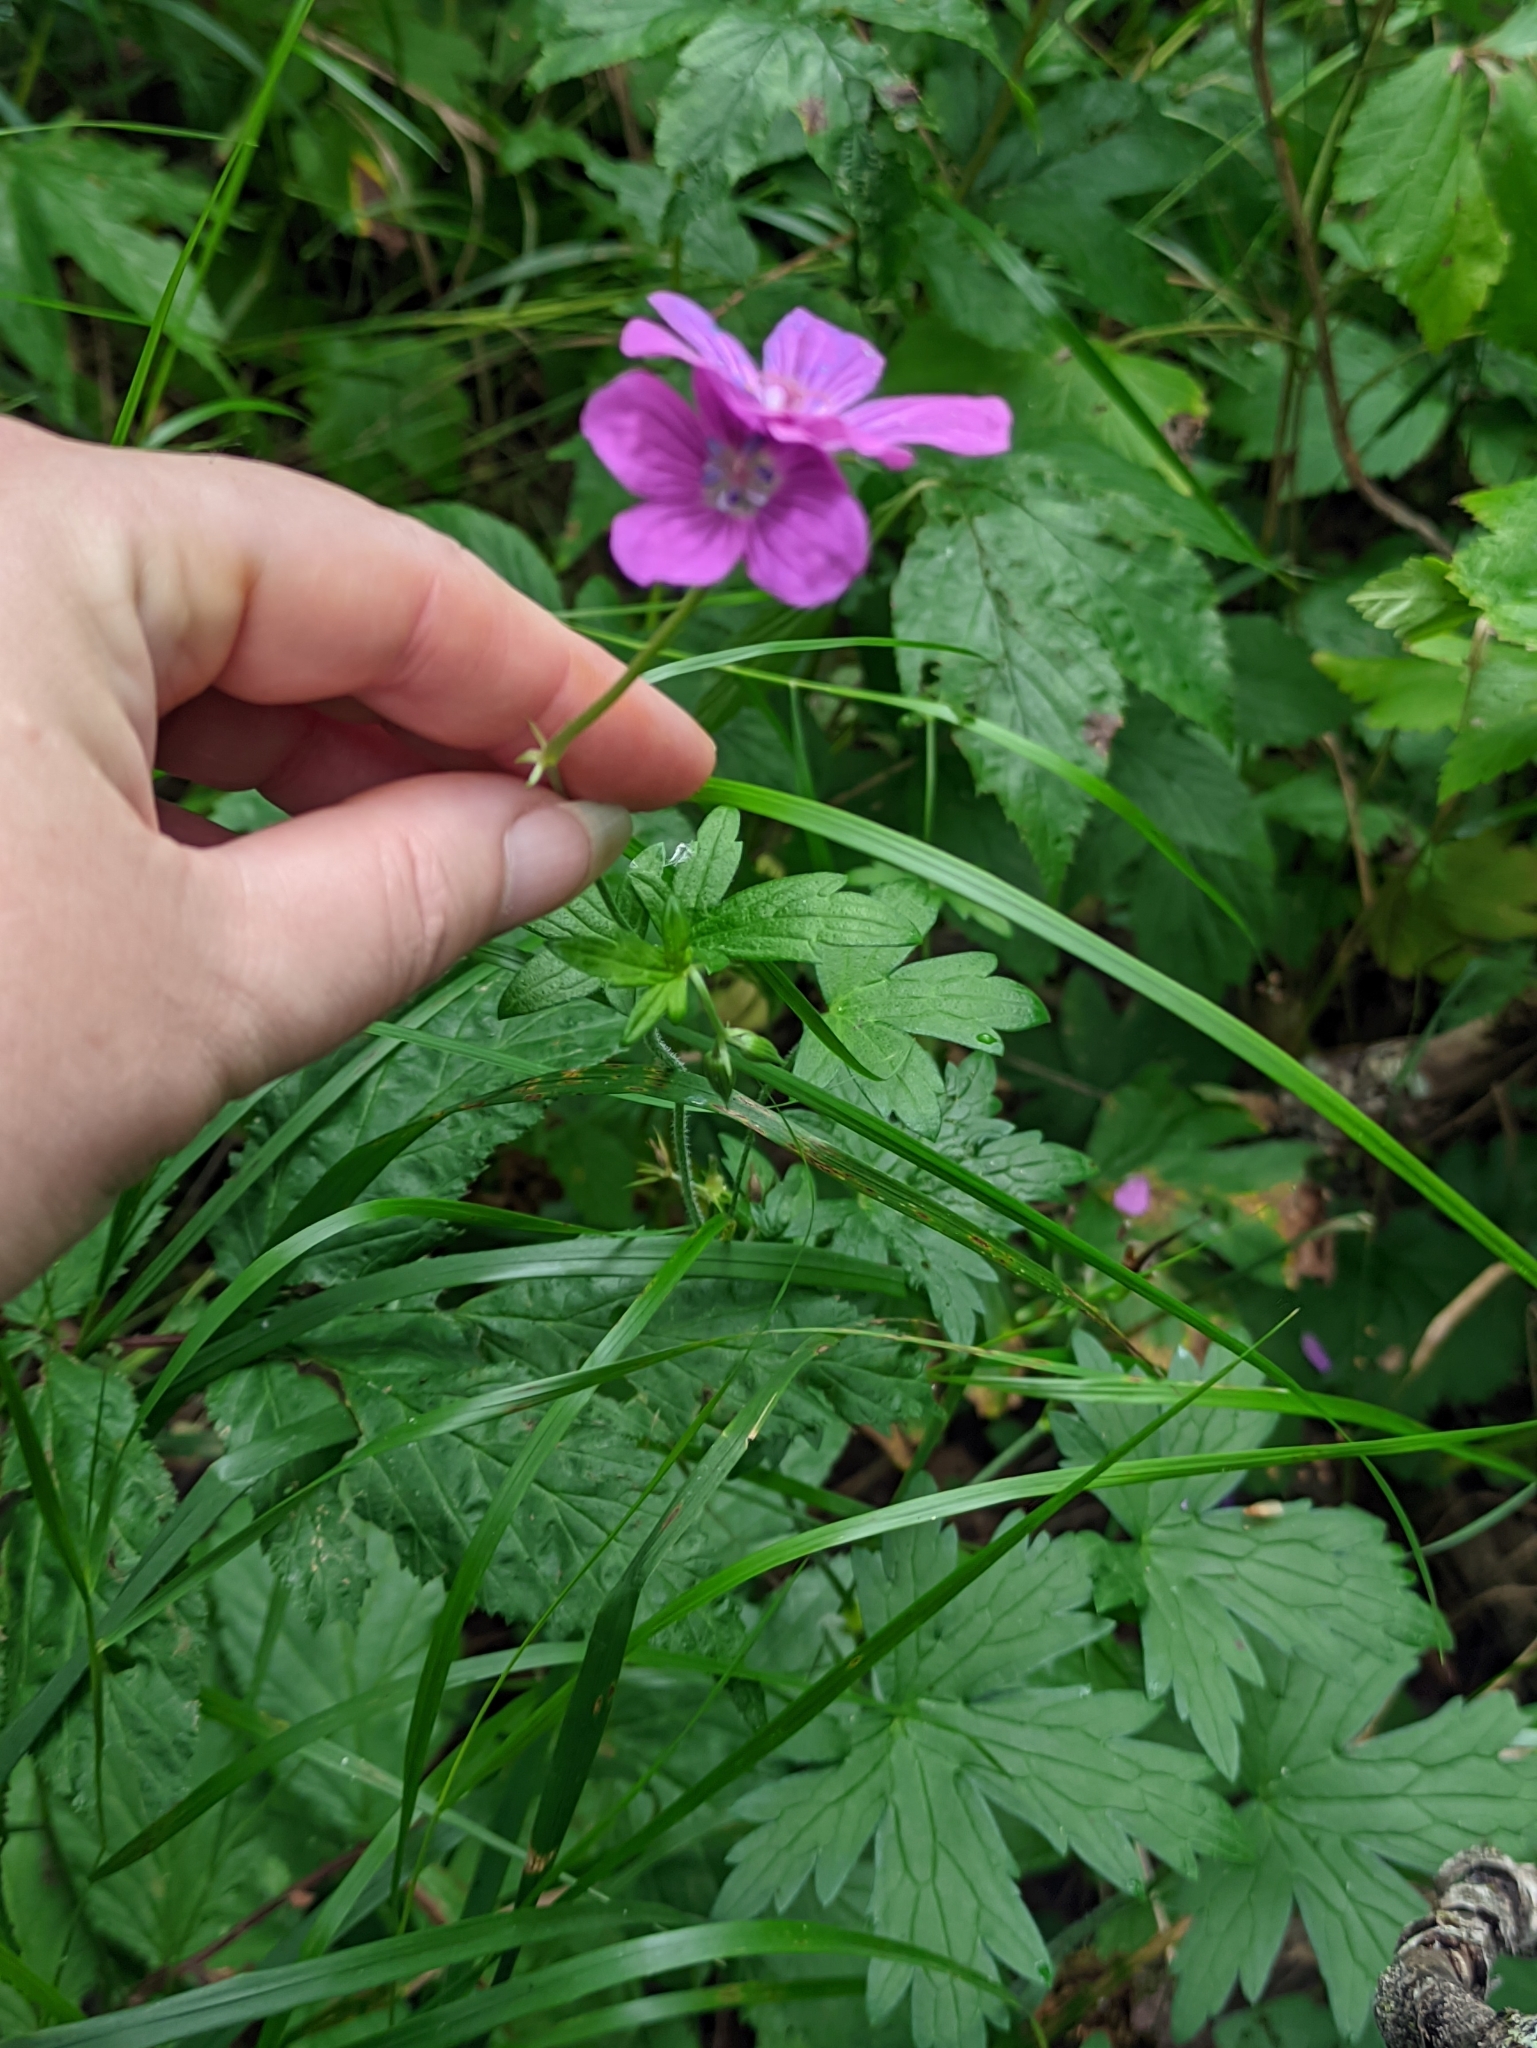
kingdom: Plantae
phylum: Tracheophyta
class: Magnoliopsida
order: Geraniales
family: Geraniaceae
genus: Geranium
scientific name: Geranium palustre
